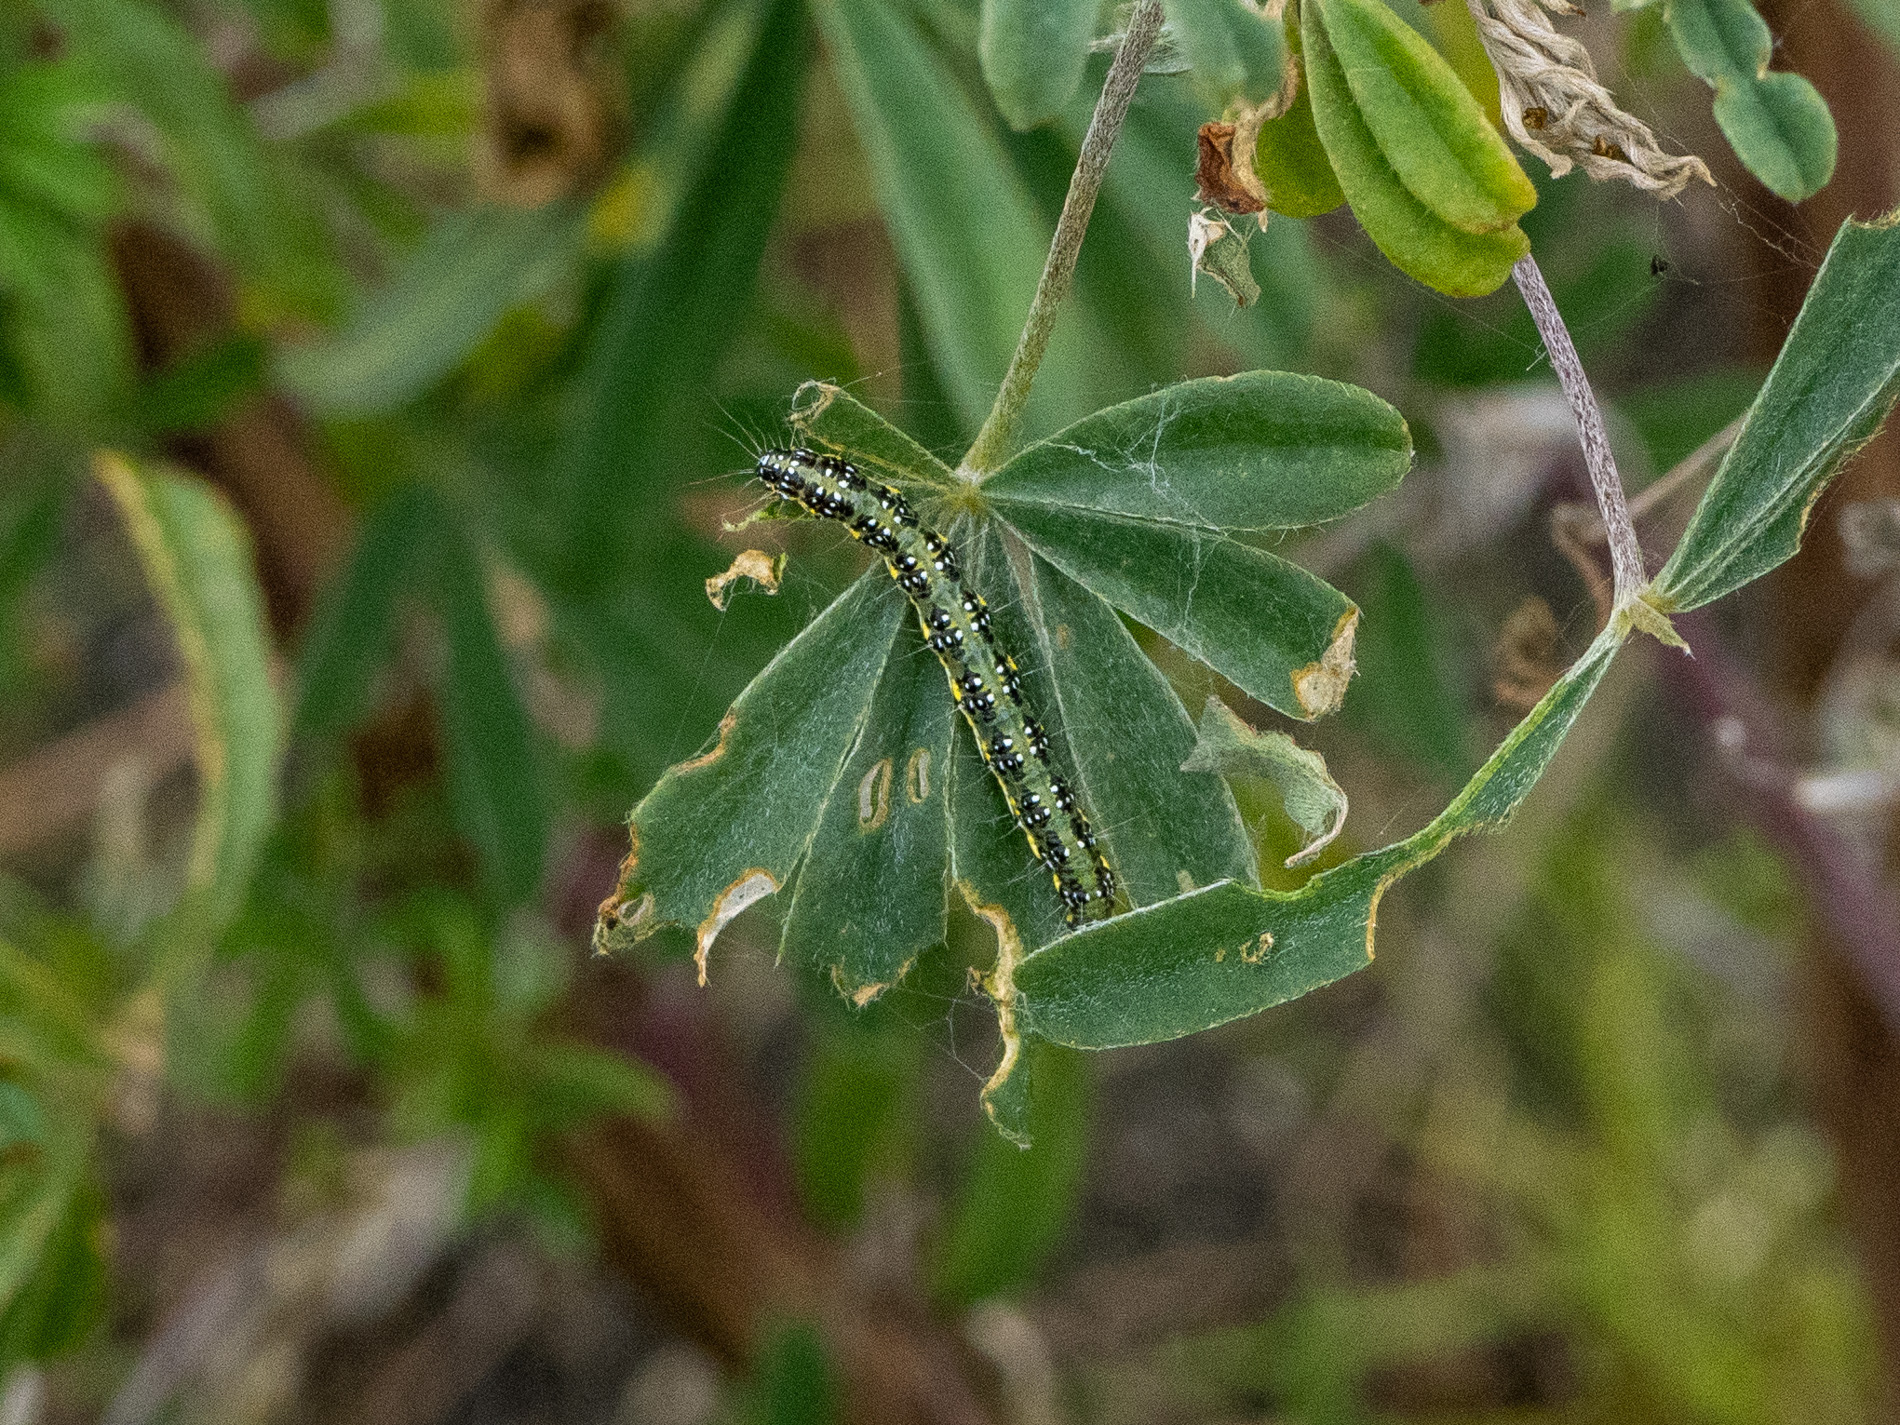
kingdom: Animalia
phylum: Arthropoda
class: Insecta
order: Lepidoptera
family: Crambidae
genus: Uresiphita
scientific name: Uresiphita
